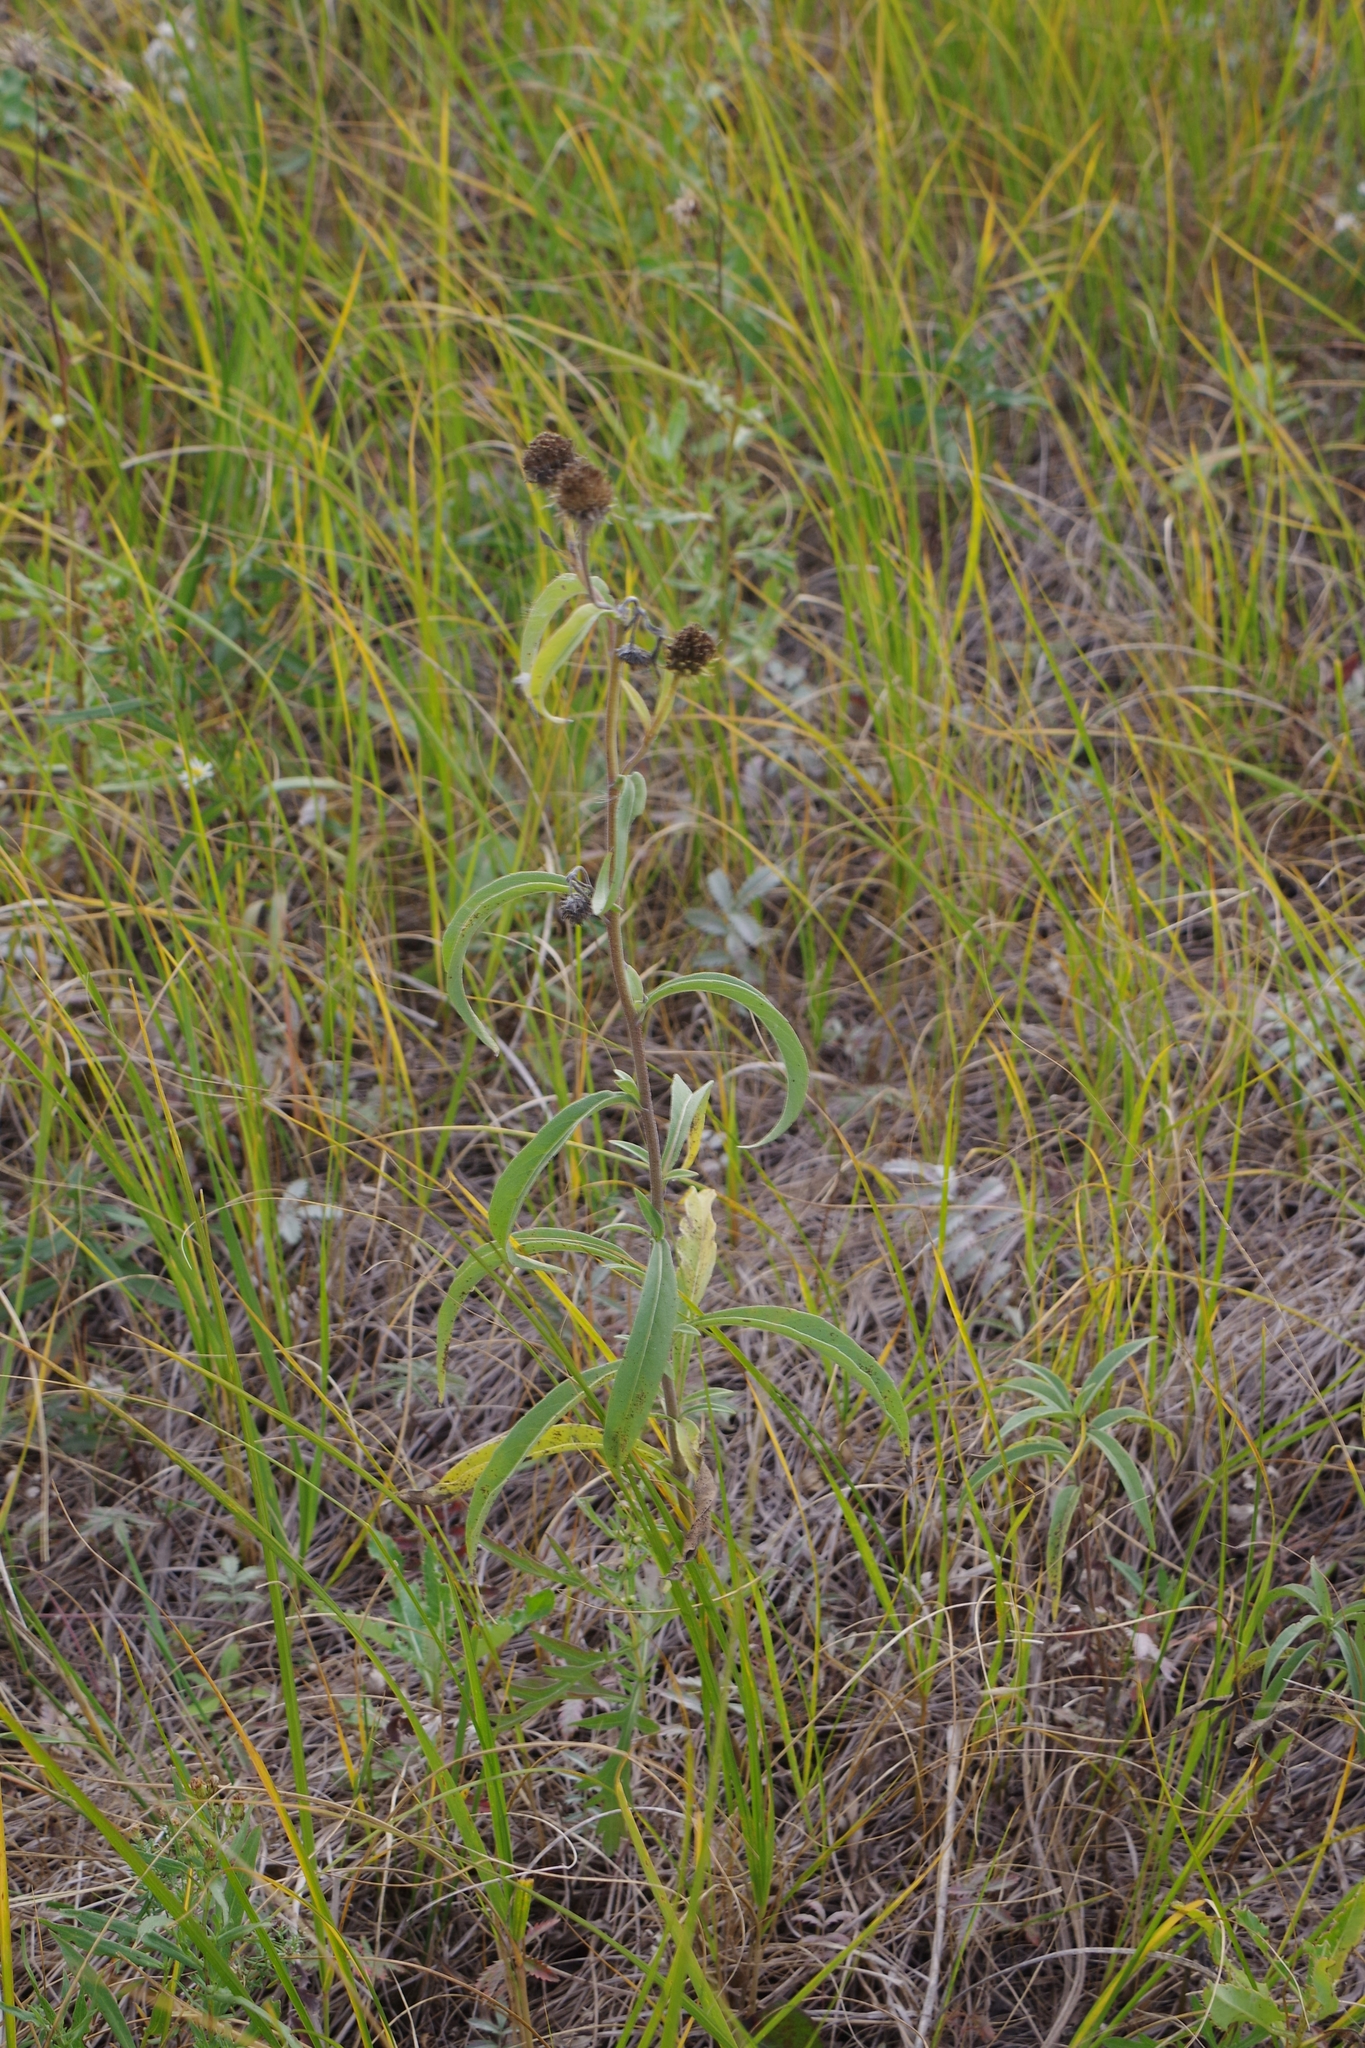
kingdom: Plantae
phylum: Tracheophyta
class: Magnoliopsida
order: Asterales
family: Asteraceae
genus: Helianthus
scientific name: Helianthus maximiliani
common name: Maximilian's sunflower
